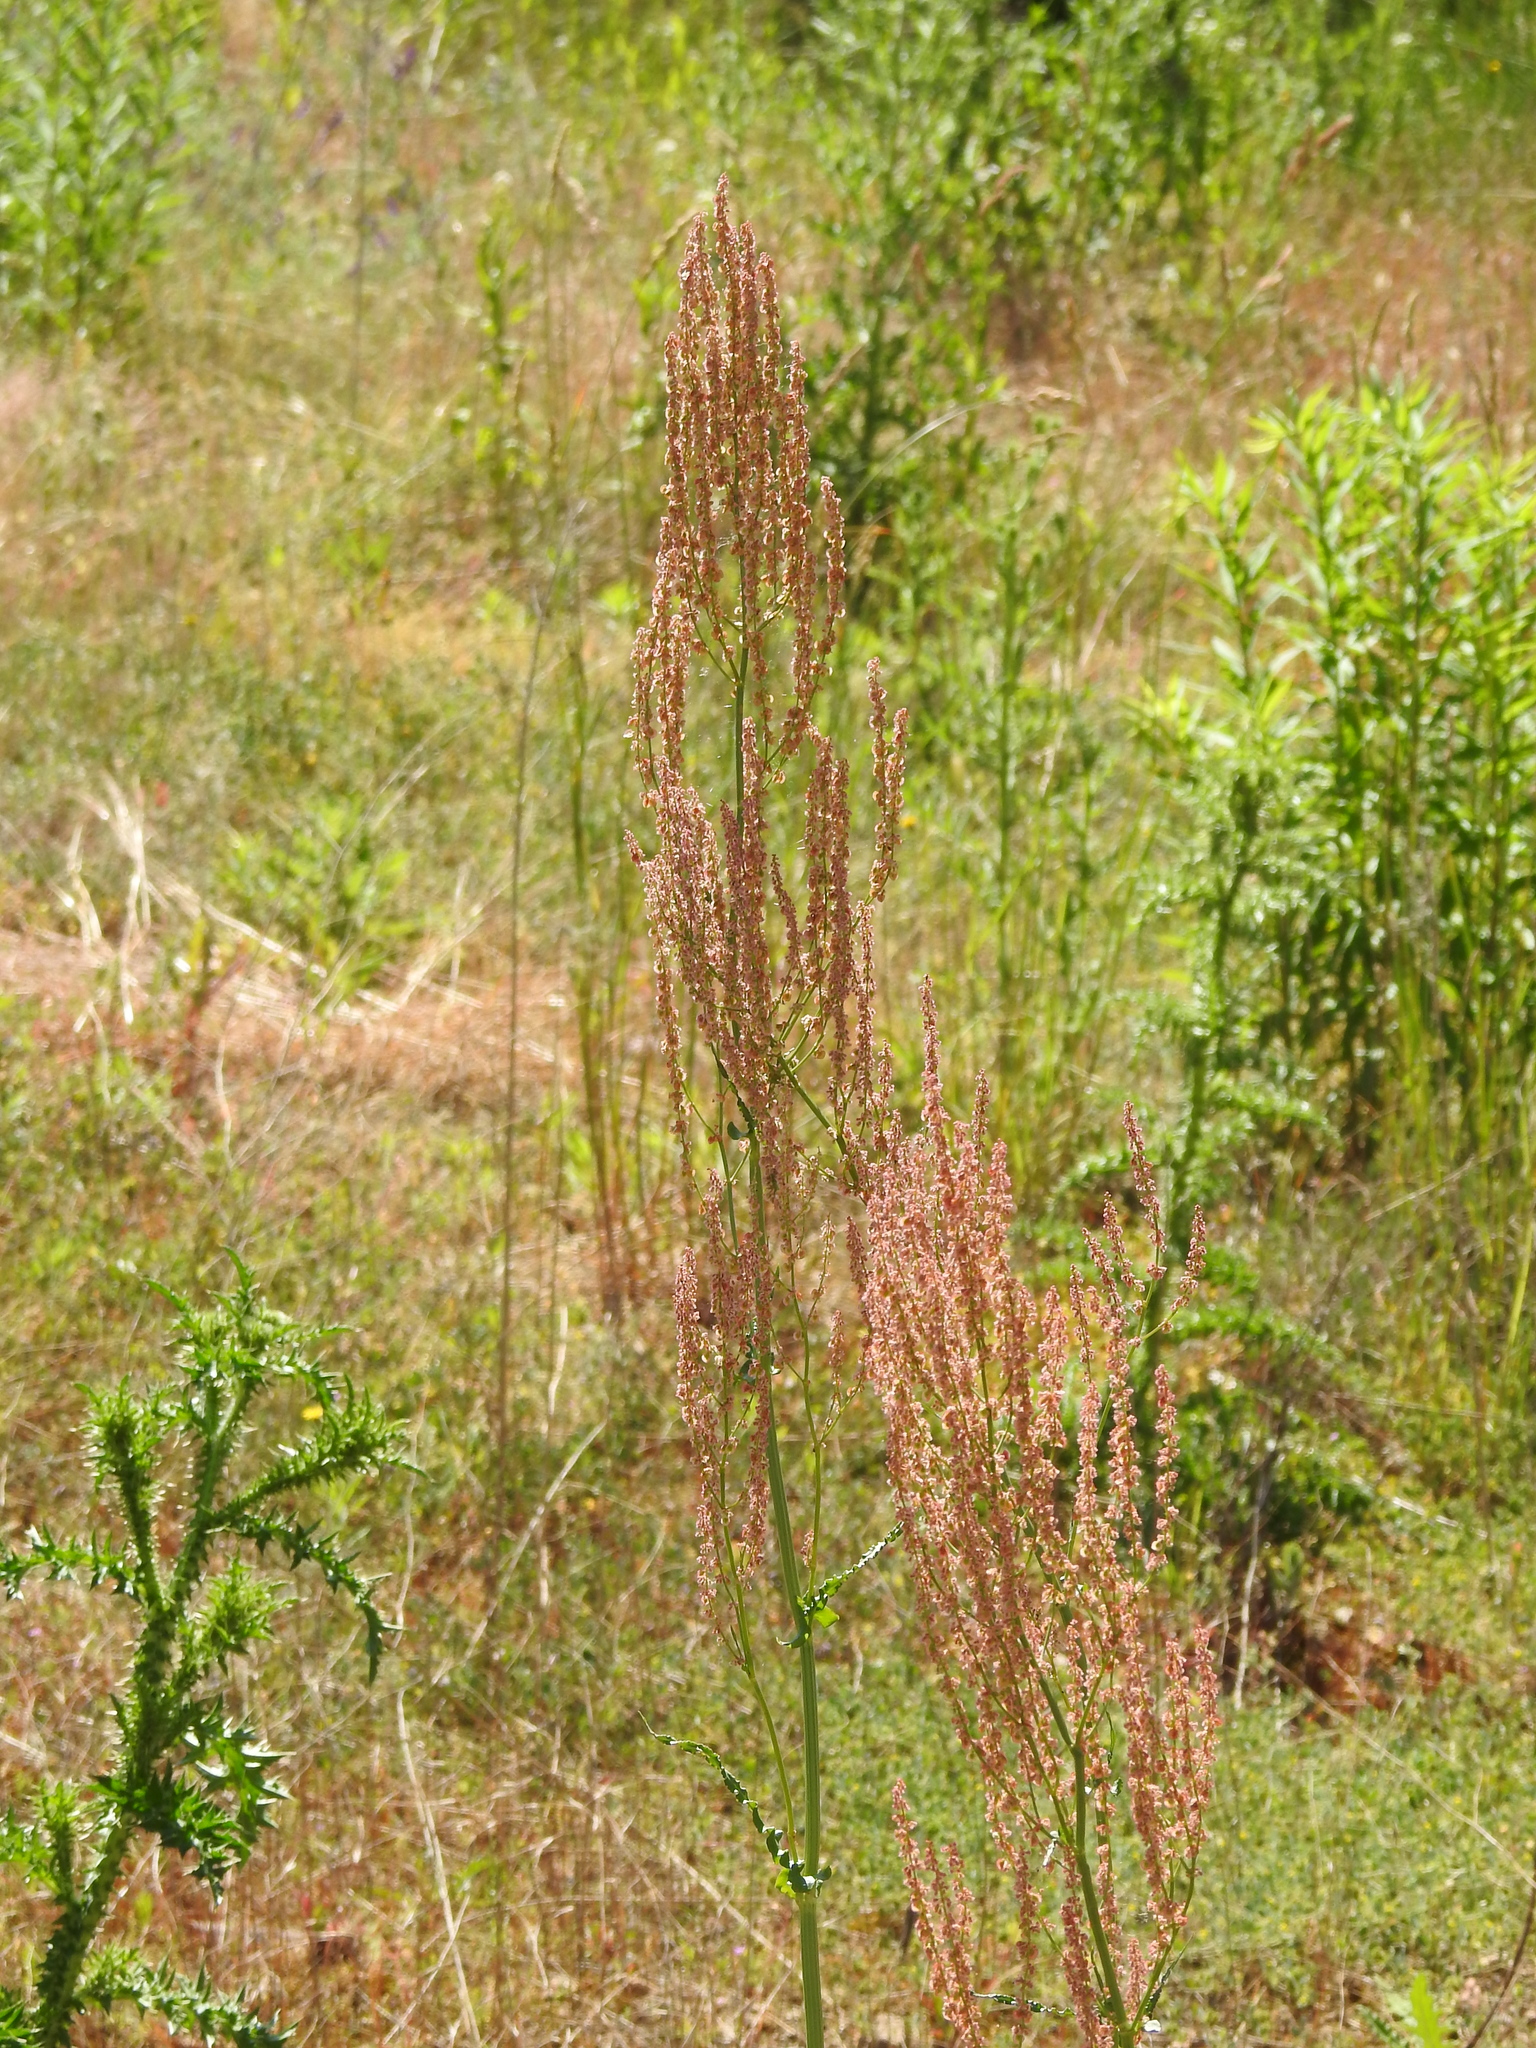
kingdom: Plantae
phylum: Tracheophyta
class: Magnoliopsida
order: Caryophyllales
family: Polygonaceae
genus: Rumex
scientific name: Rumex thyrsiflorus
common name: Garden sorrel
